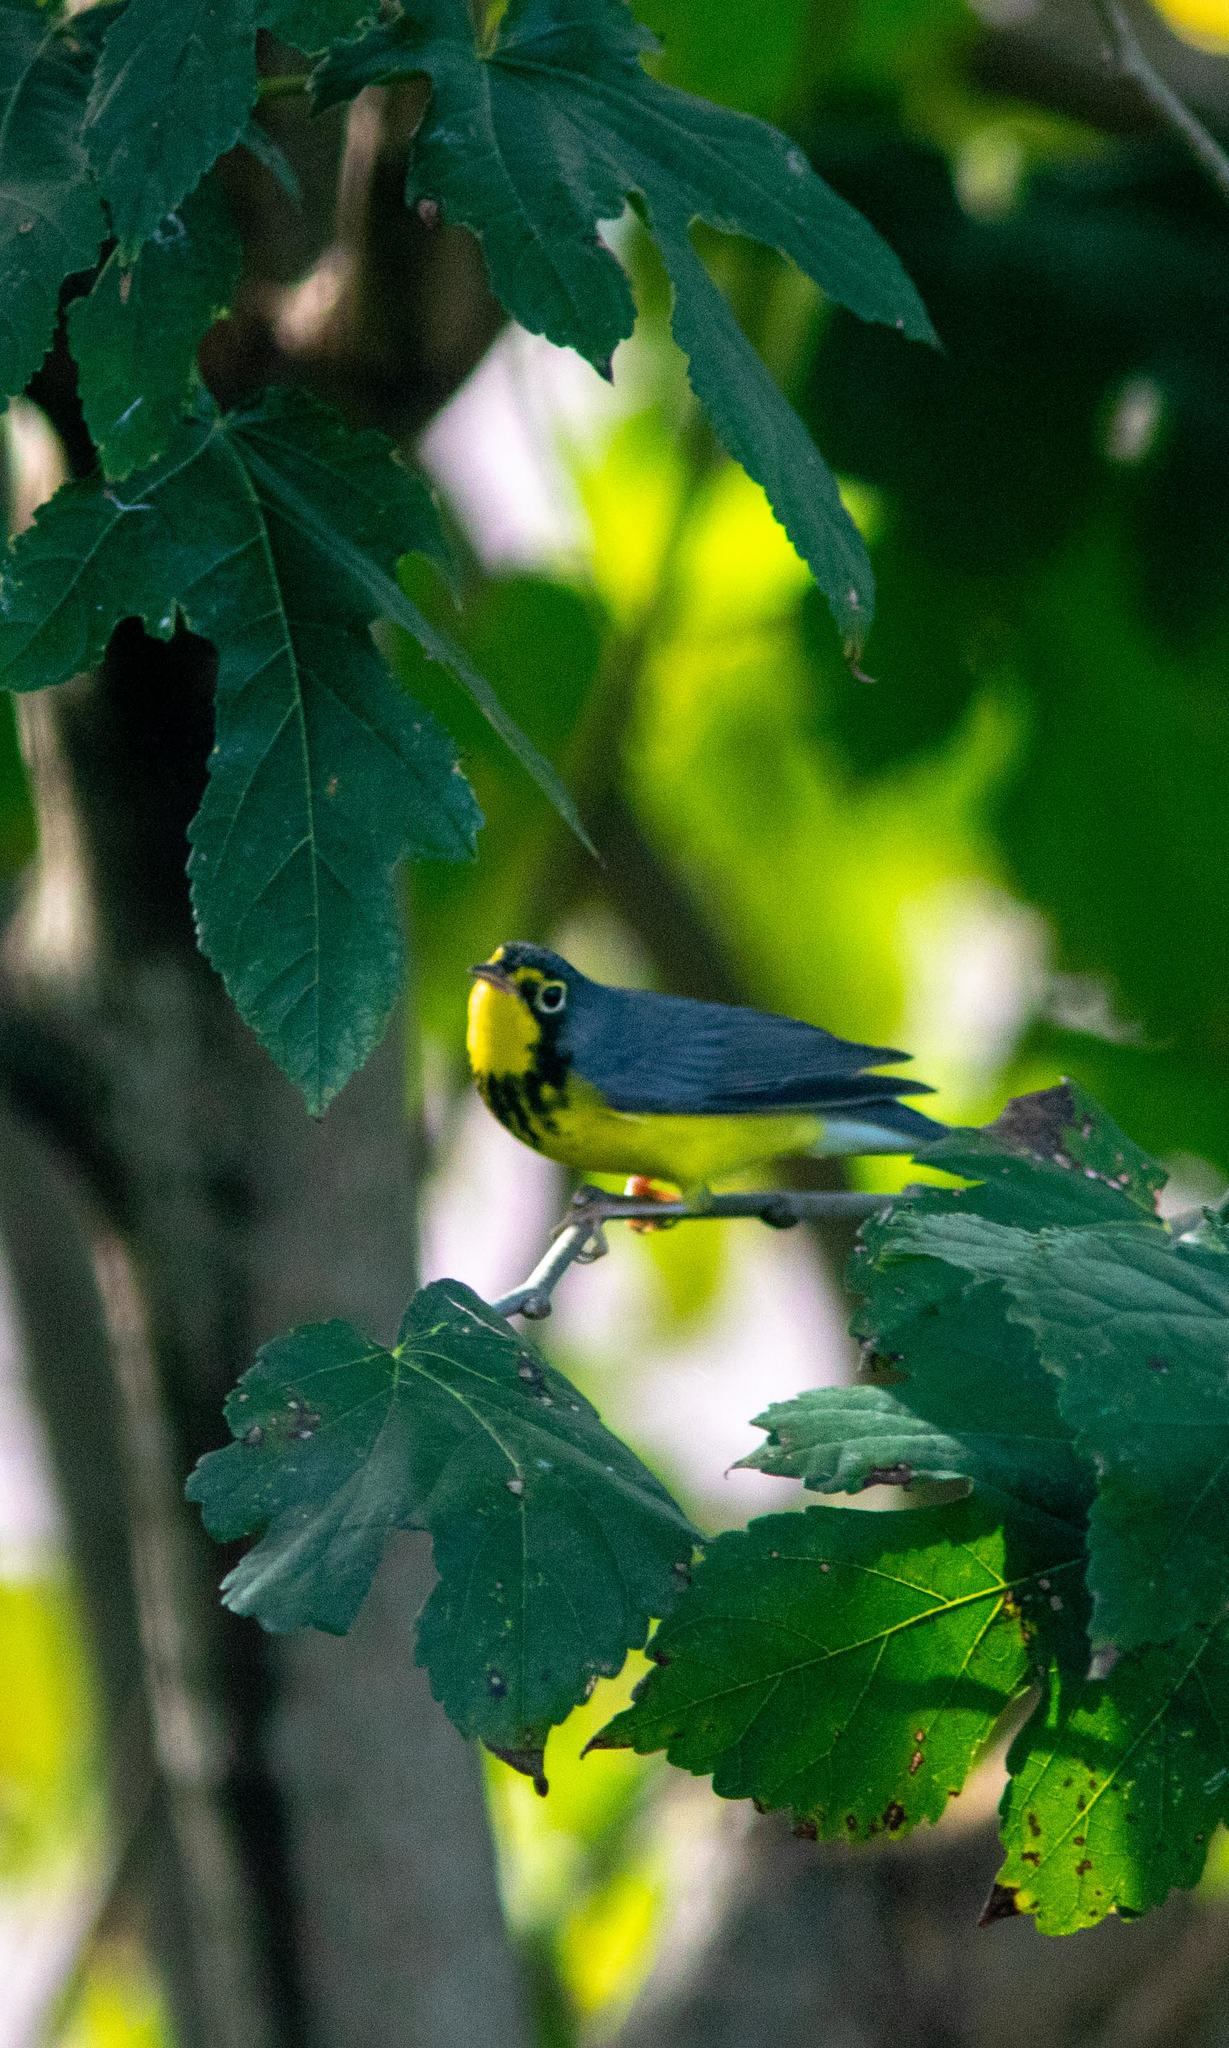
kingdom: Animalia
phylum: Chordata
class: Aves
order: Passeriformes
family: Parulidae
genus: Cardellina
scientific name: Cardellina canadensis
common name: Canada warbler
